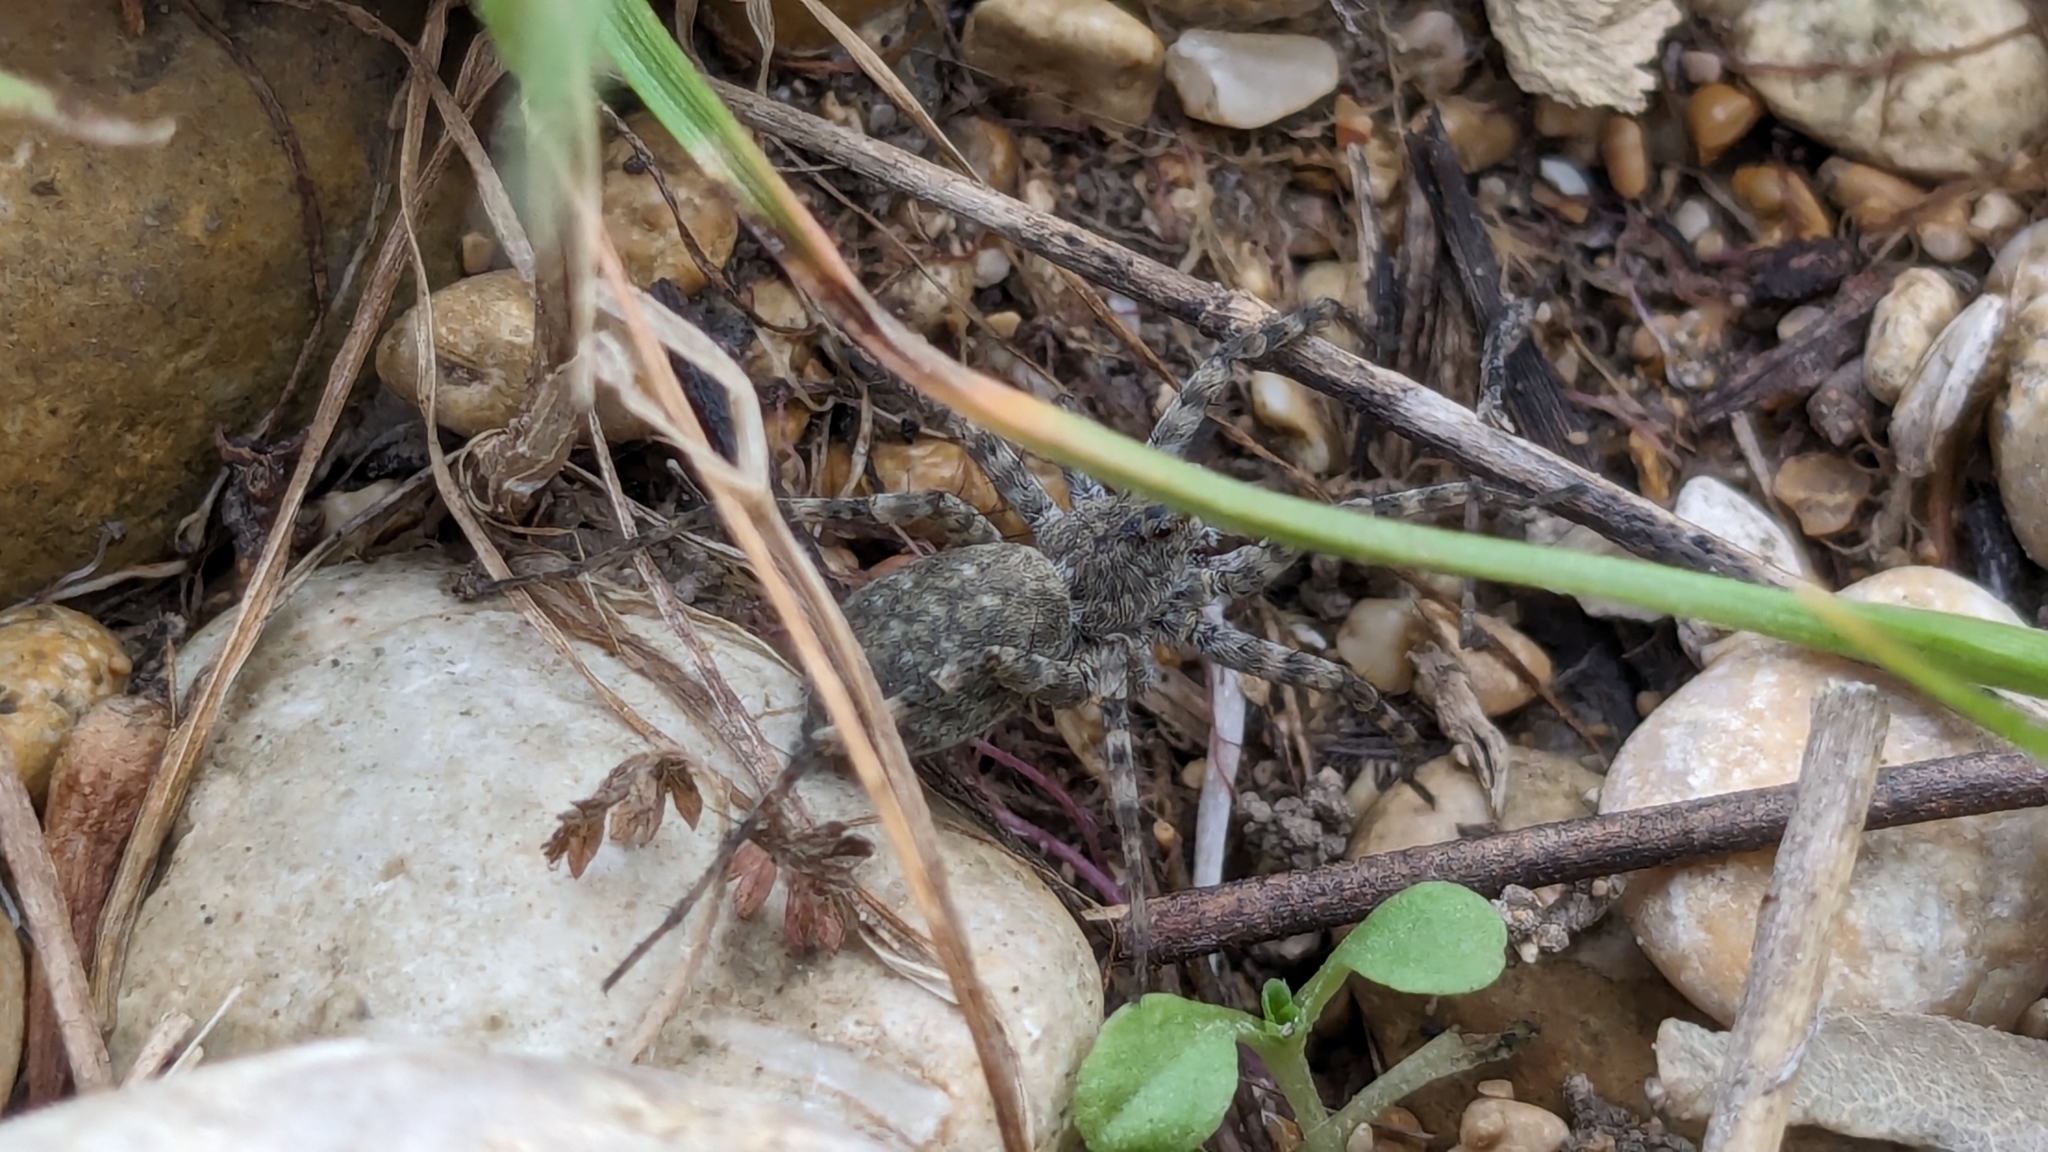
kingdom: Animalia
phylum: Arthropoda
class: Arachnida
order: Araneae
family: Lycosidae
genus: Pardosa
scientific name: Pardosa mercurialis
